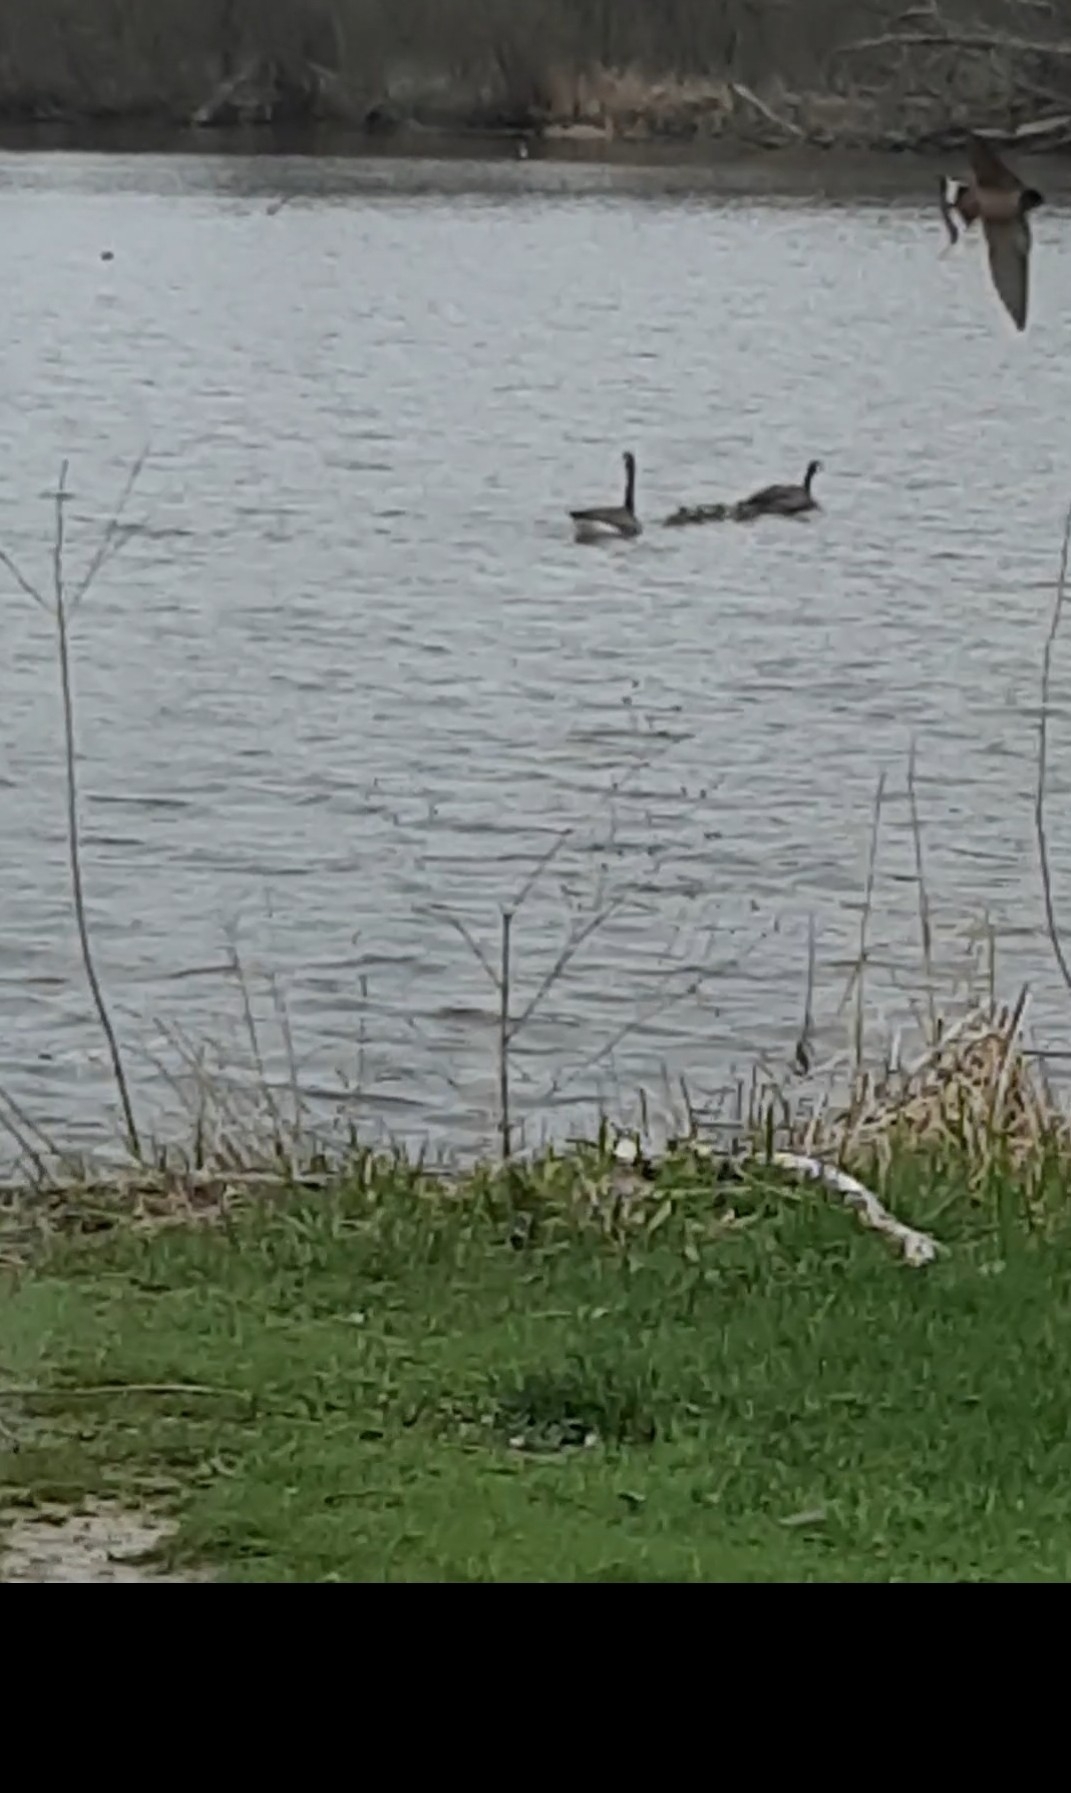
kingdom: Animalia
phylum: Chordata
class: Aves
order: Passeriformes
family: Hirundinidae
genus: Hirundo
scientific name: Hirundo rustica
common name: Barn swallow
